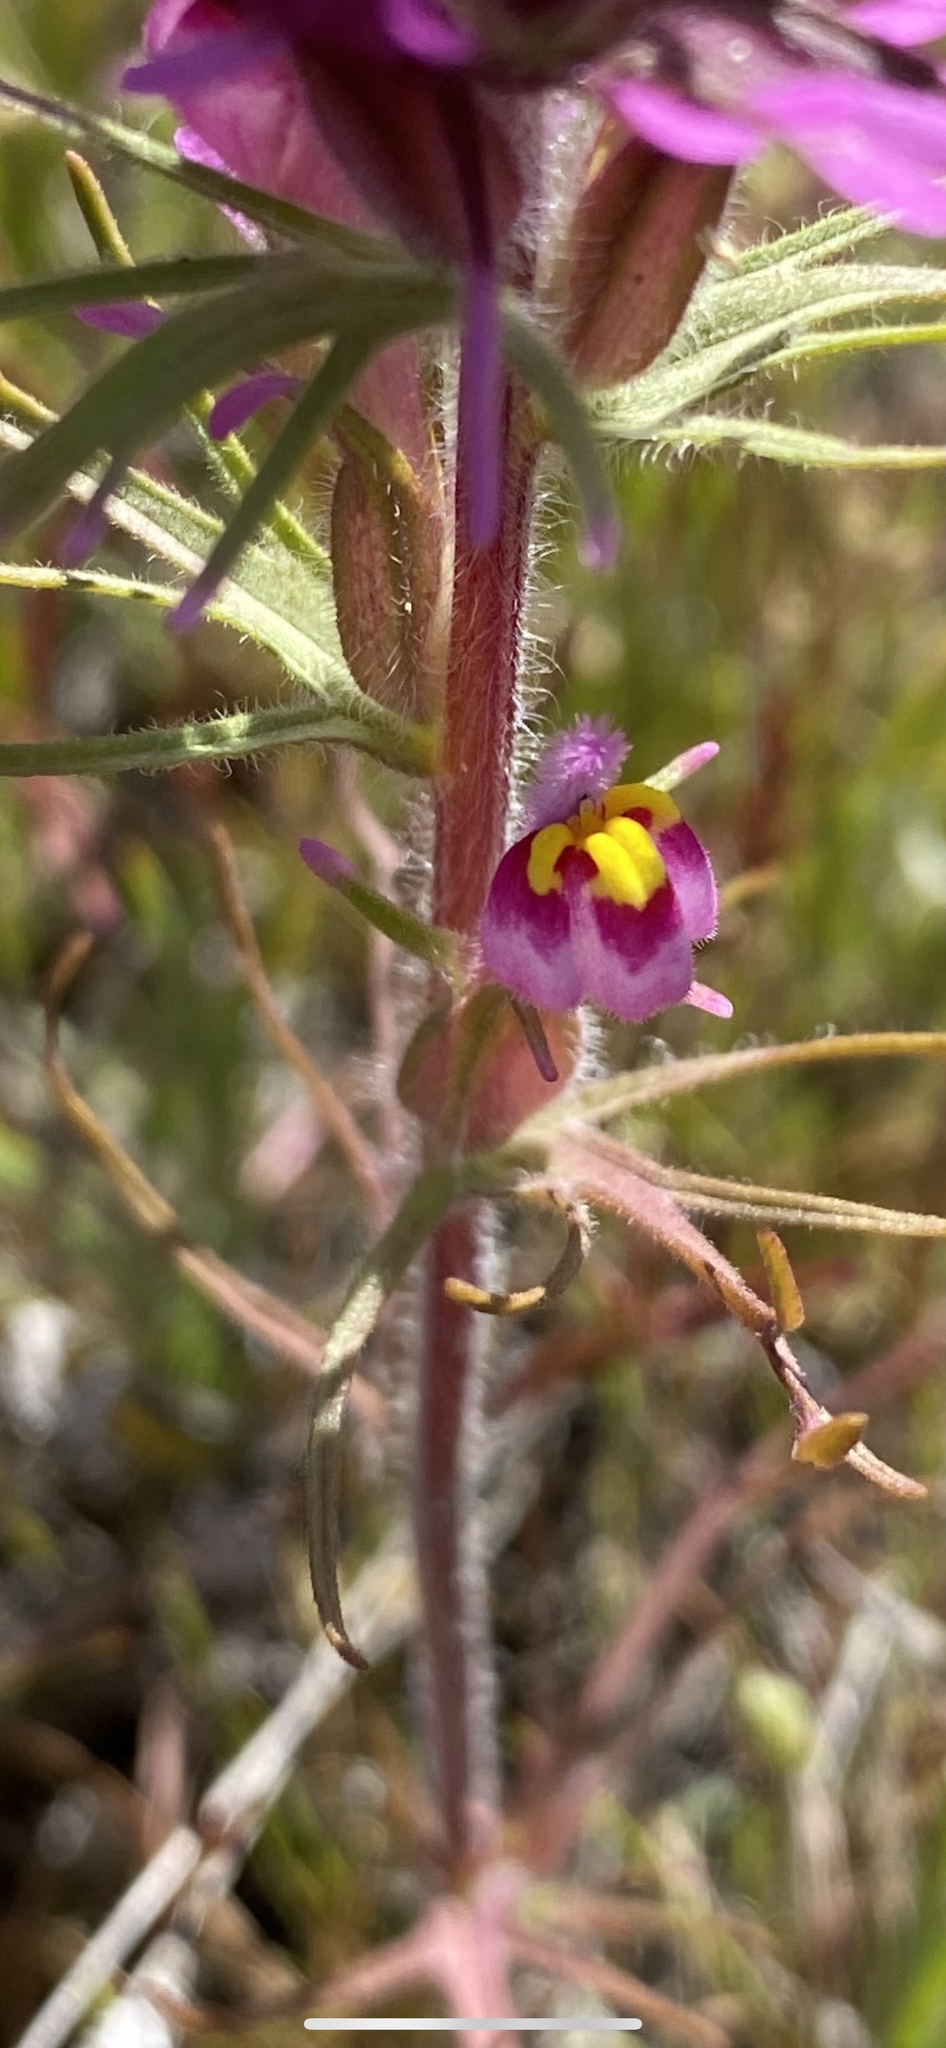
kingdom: Plantae
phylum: Tracheophyta
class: Magnoliopsida
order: Lamiales
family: Orobanchaceae
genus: Castilleja
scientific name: Castilleja exserta
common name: Purple owl-clover
